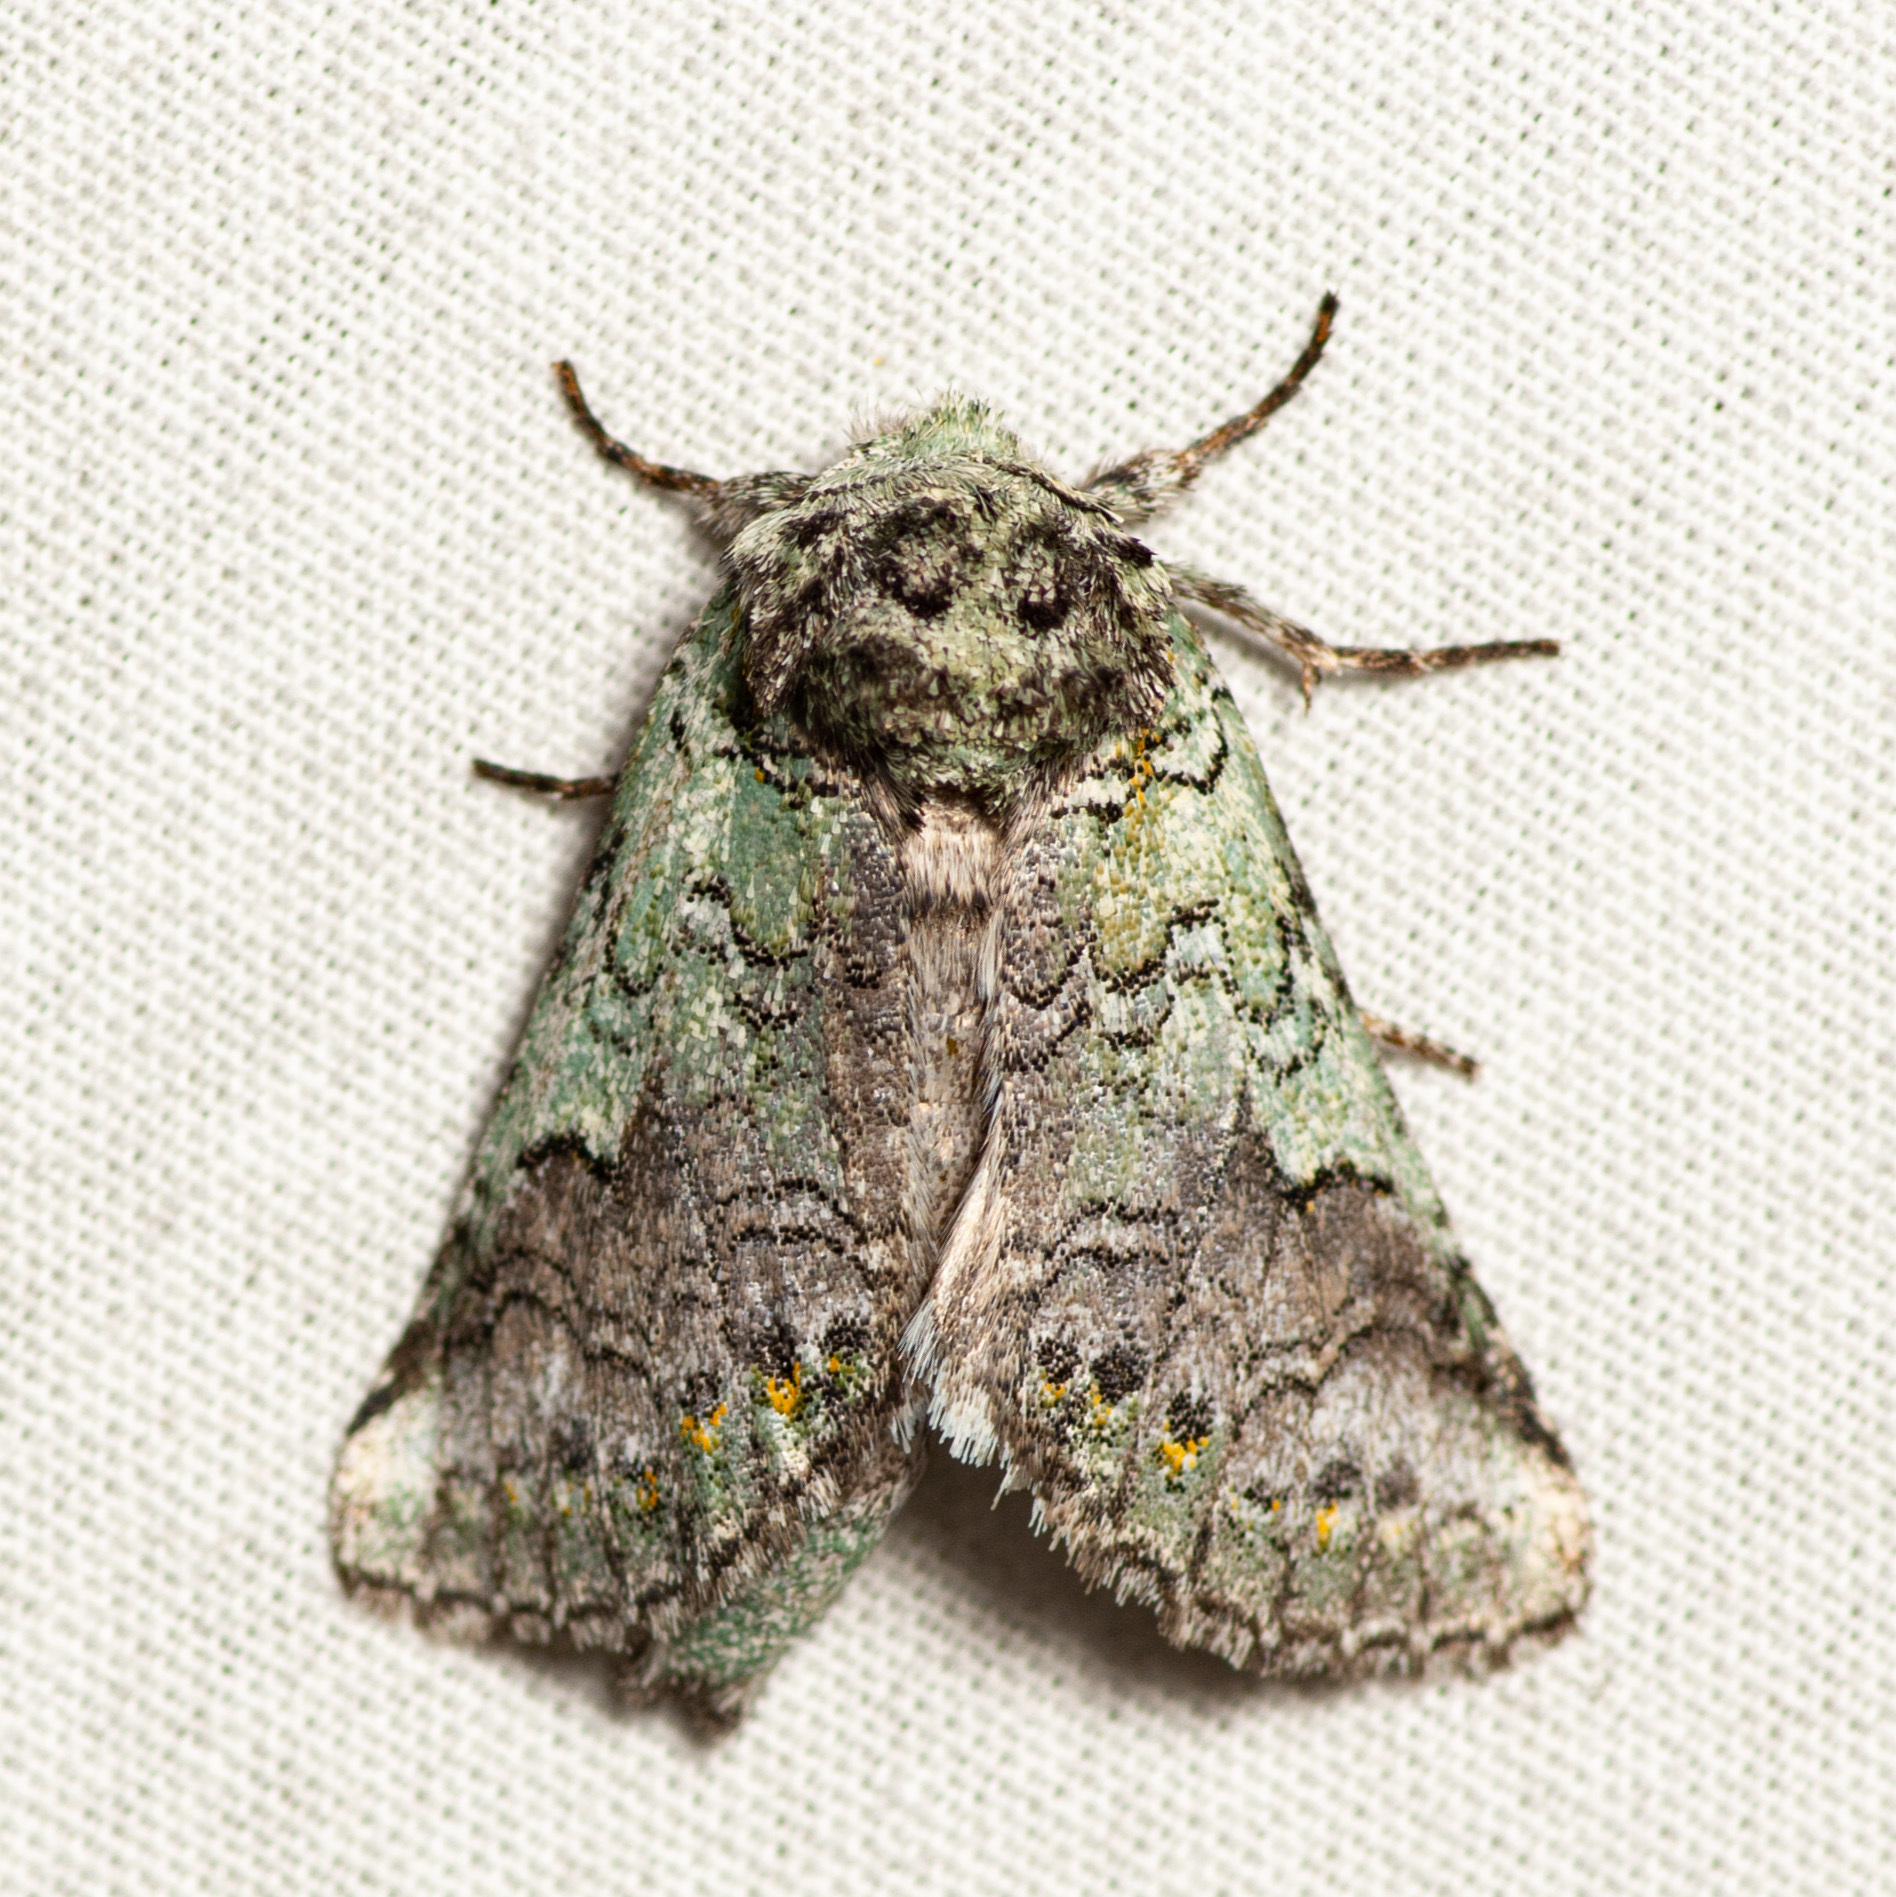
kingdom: Animalia
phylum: Arthropoda
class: Insecta
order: Lepidoptera
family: Notodontidae
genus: Litodonta
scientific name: Litodonta hydromeli
